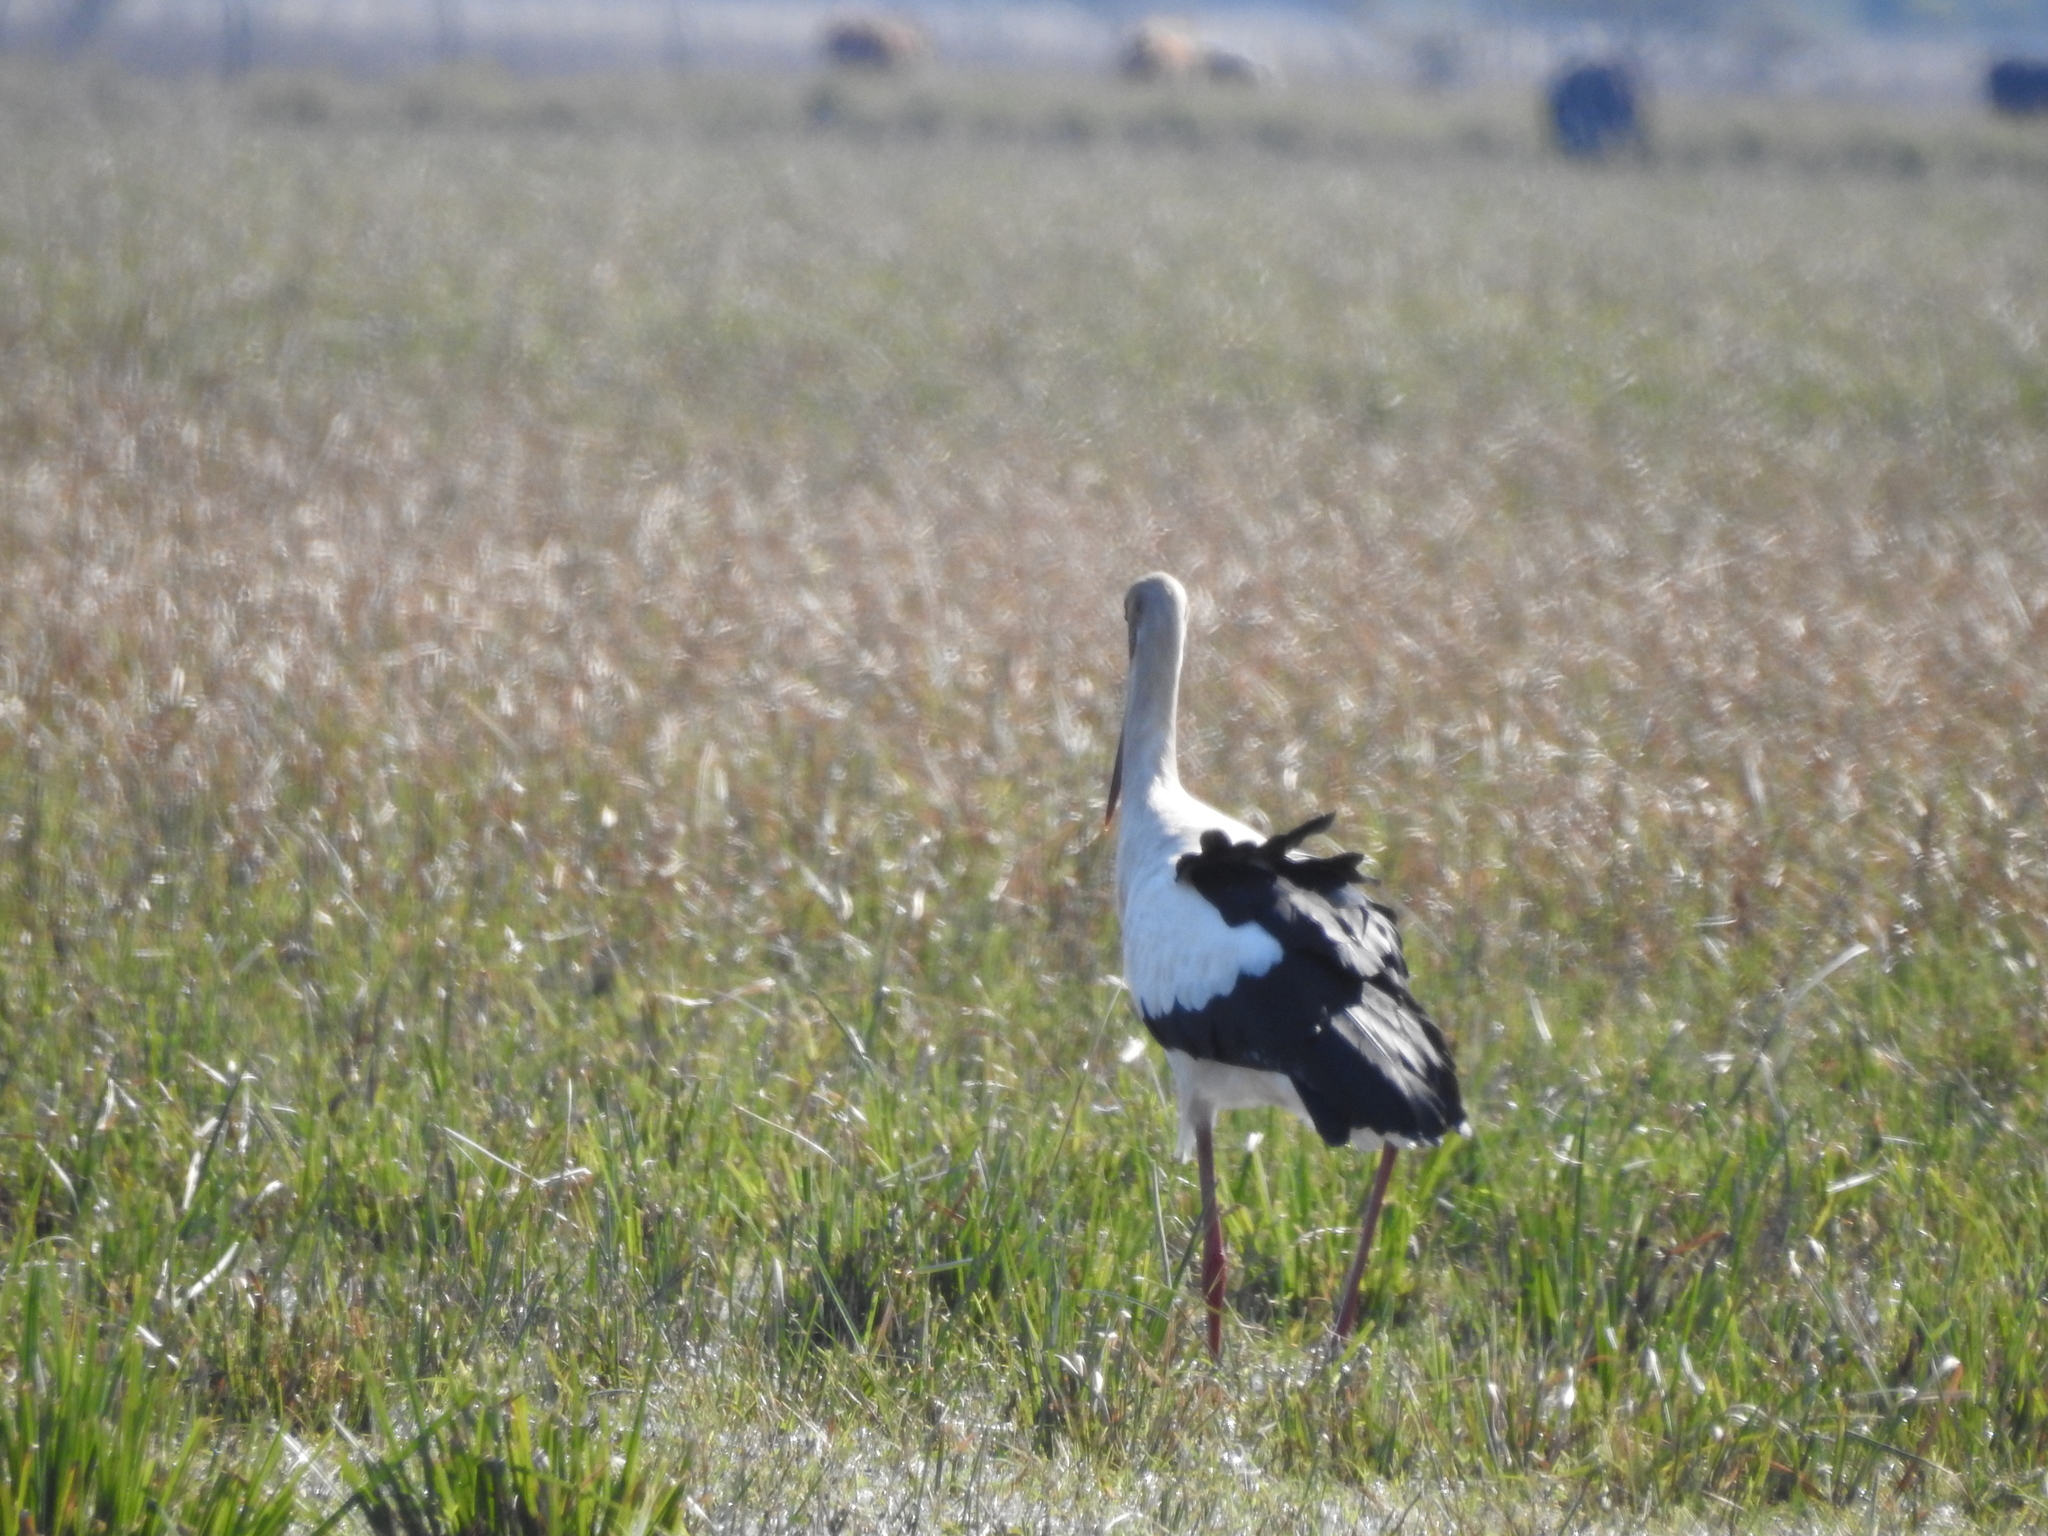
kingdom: Animalia
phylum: Chordata
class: Aves
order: Ciconiiformes
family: Ciconiidae
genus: Ciconia
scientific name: Ciconia maguari
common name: Maguari stork
